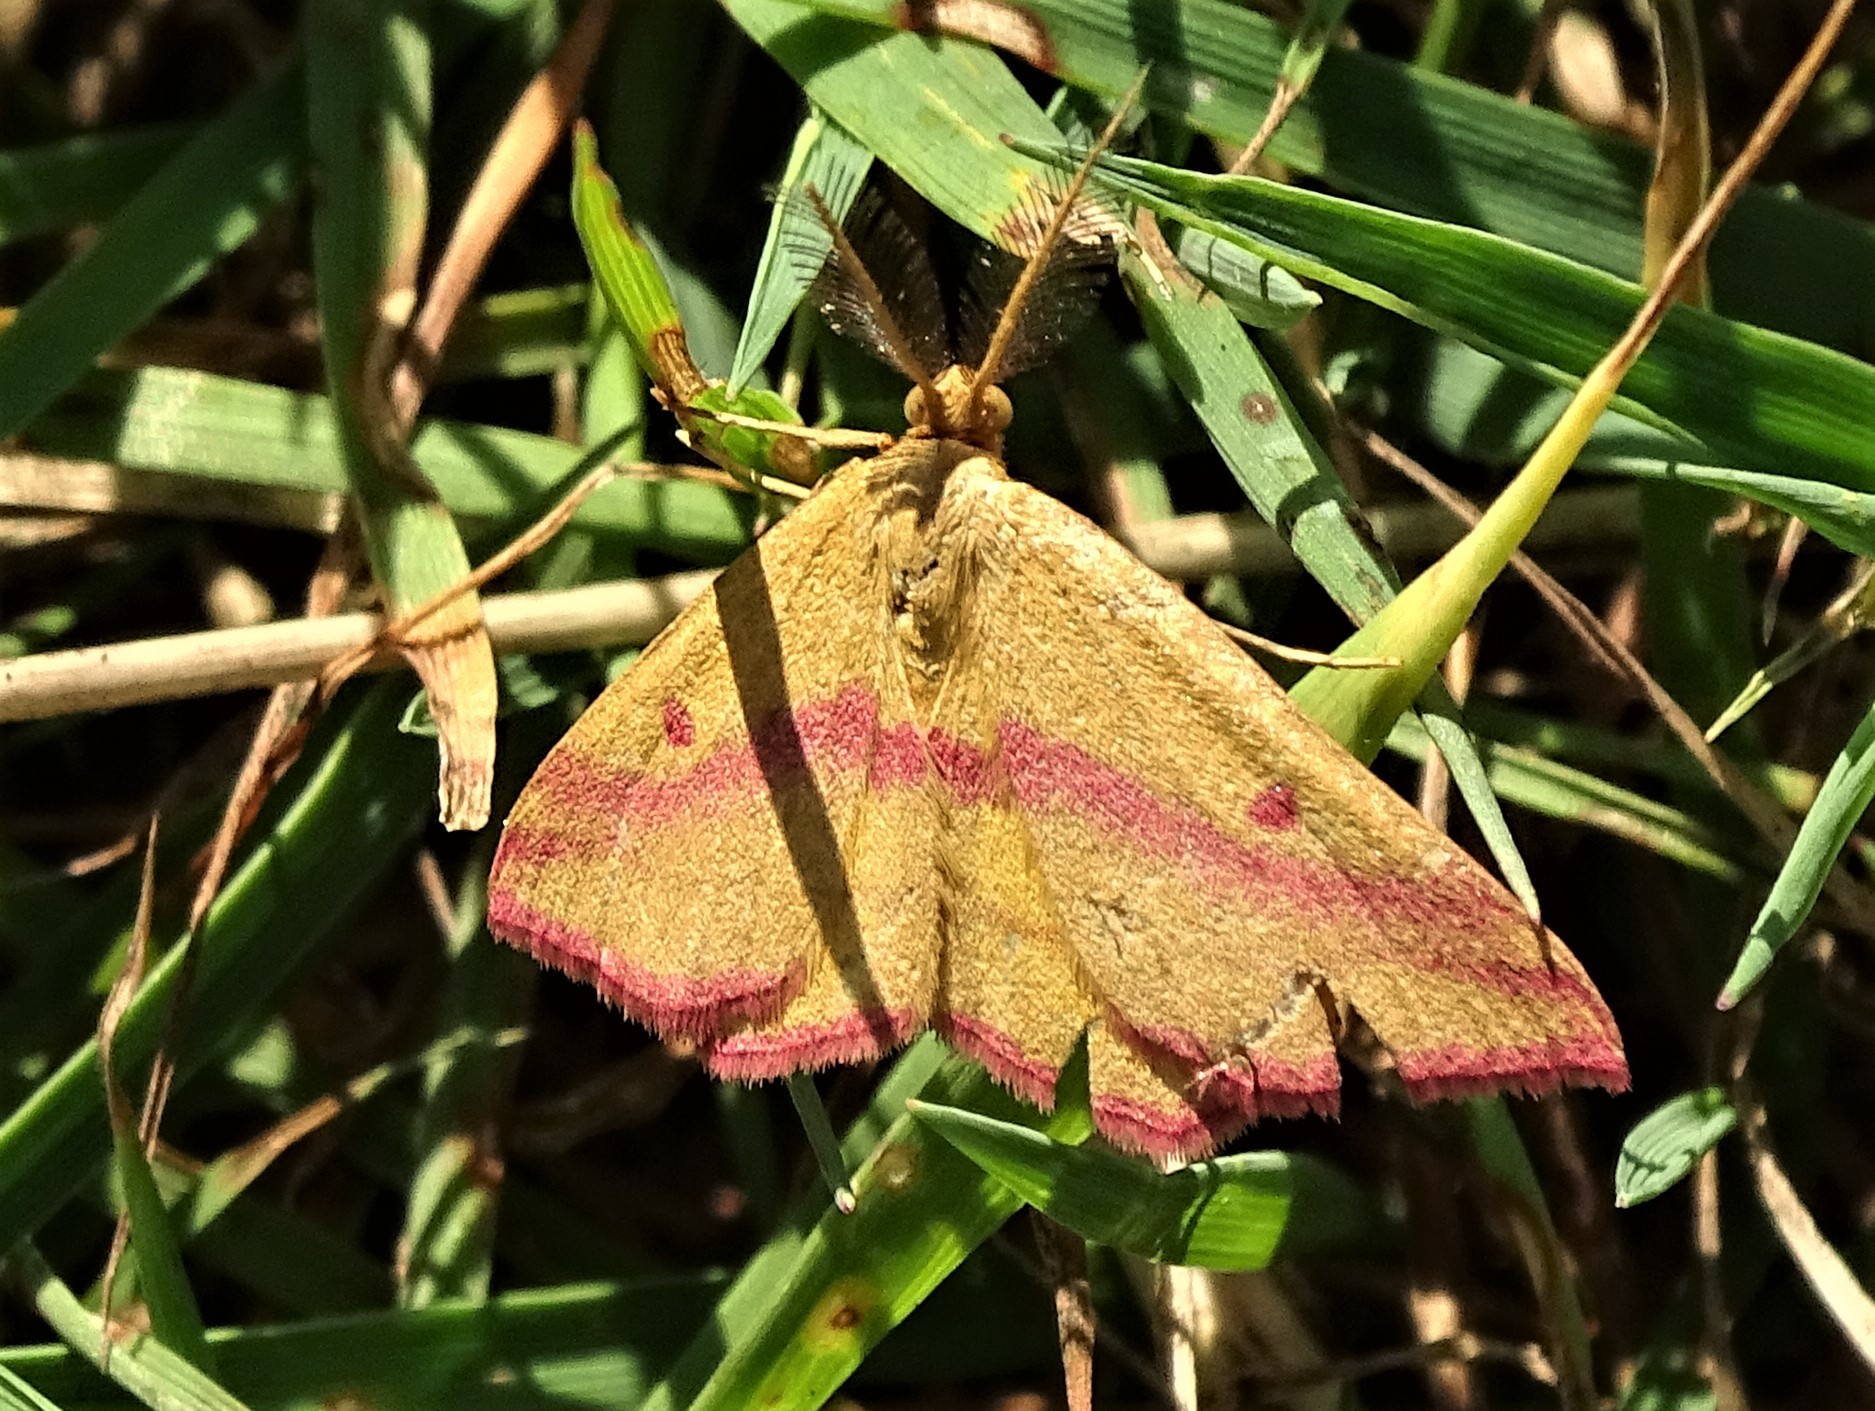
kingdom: Animalia
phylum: Arthropoda
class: Insecta
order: Lepidoptera
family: Geometridae
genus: Haematopis
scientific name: Haematopis grataria
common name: Chickweed geometer
